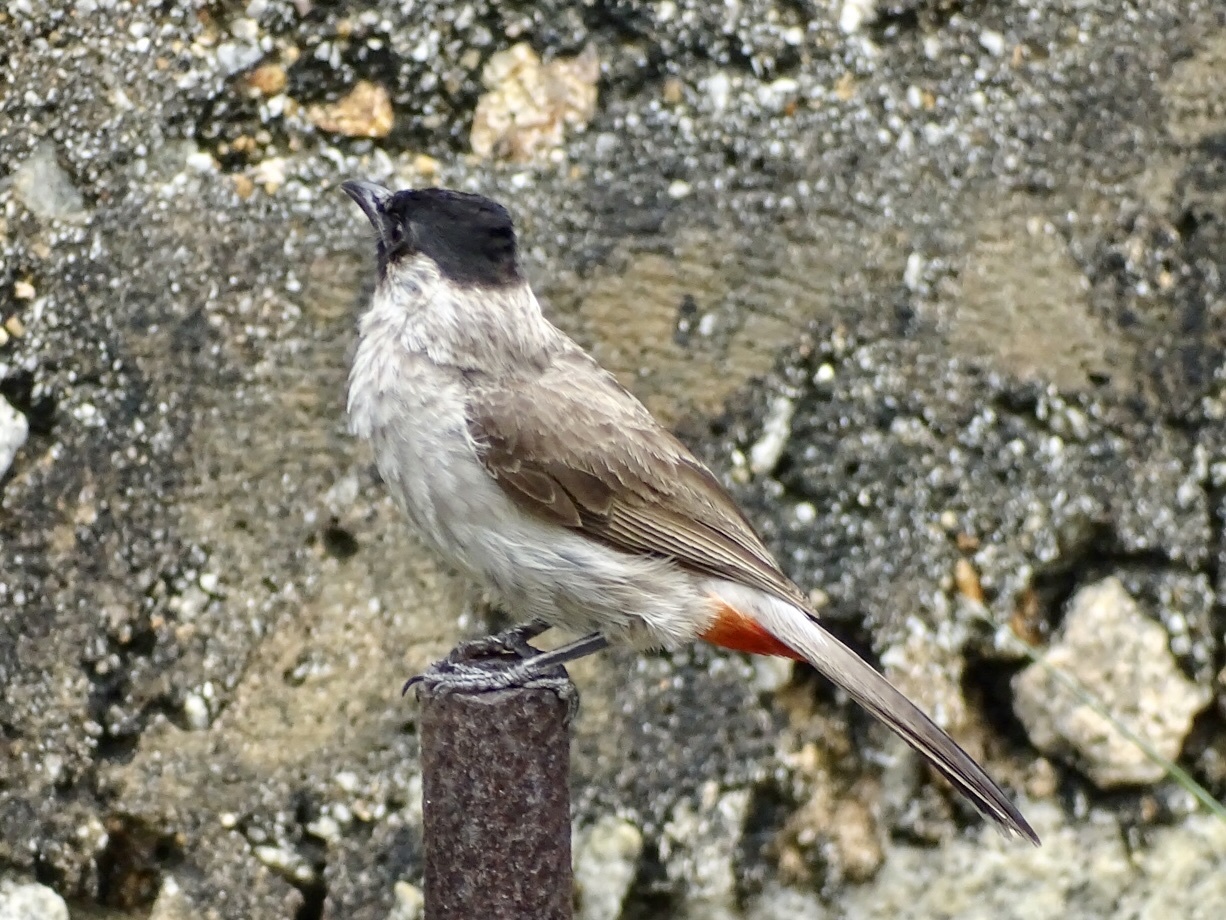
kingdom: Animalia
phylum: Chordata
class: Aves
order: Passeriformes
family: Pycnonotidae
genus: Pycnonotus
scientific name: Pycnonotus aurigaster
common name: Sooty-headed bulbul
